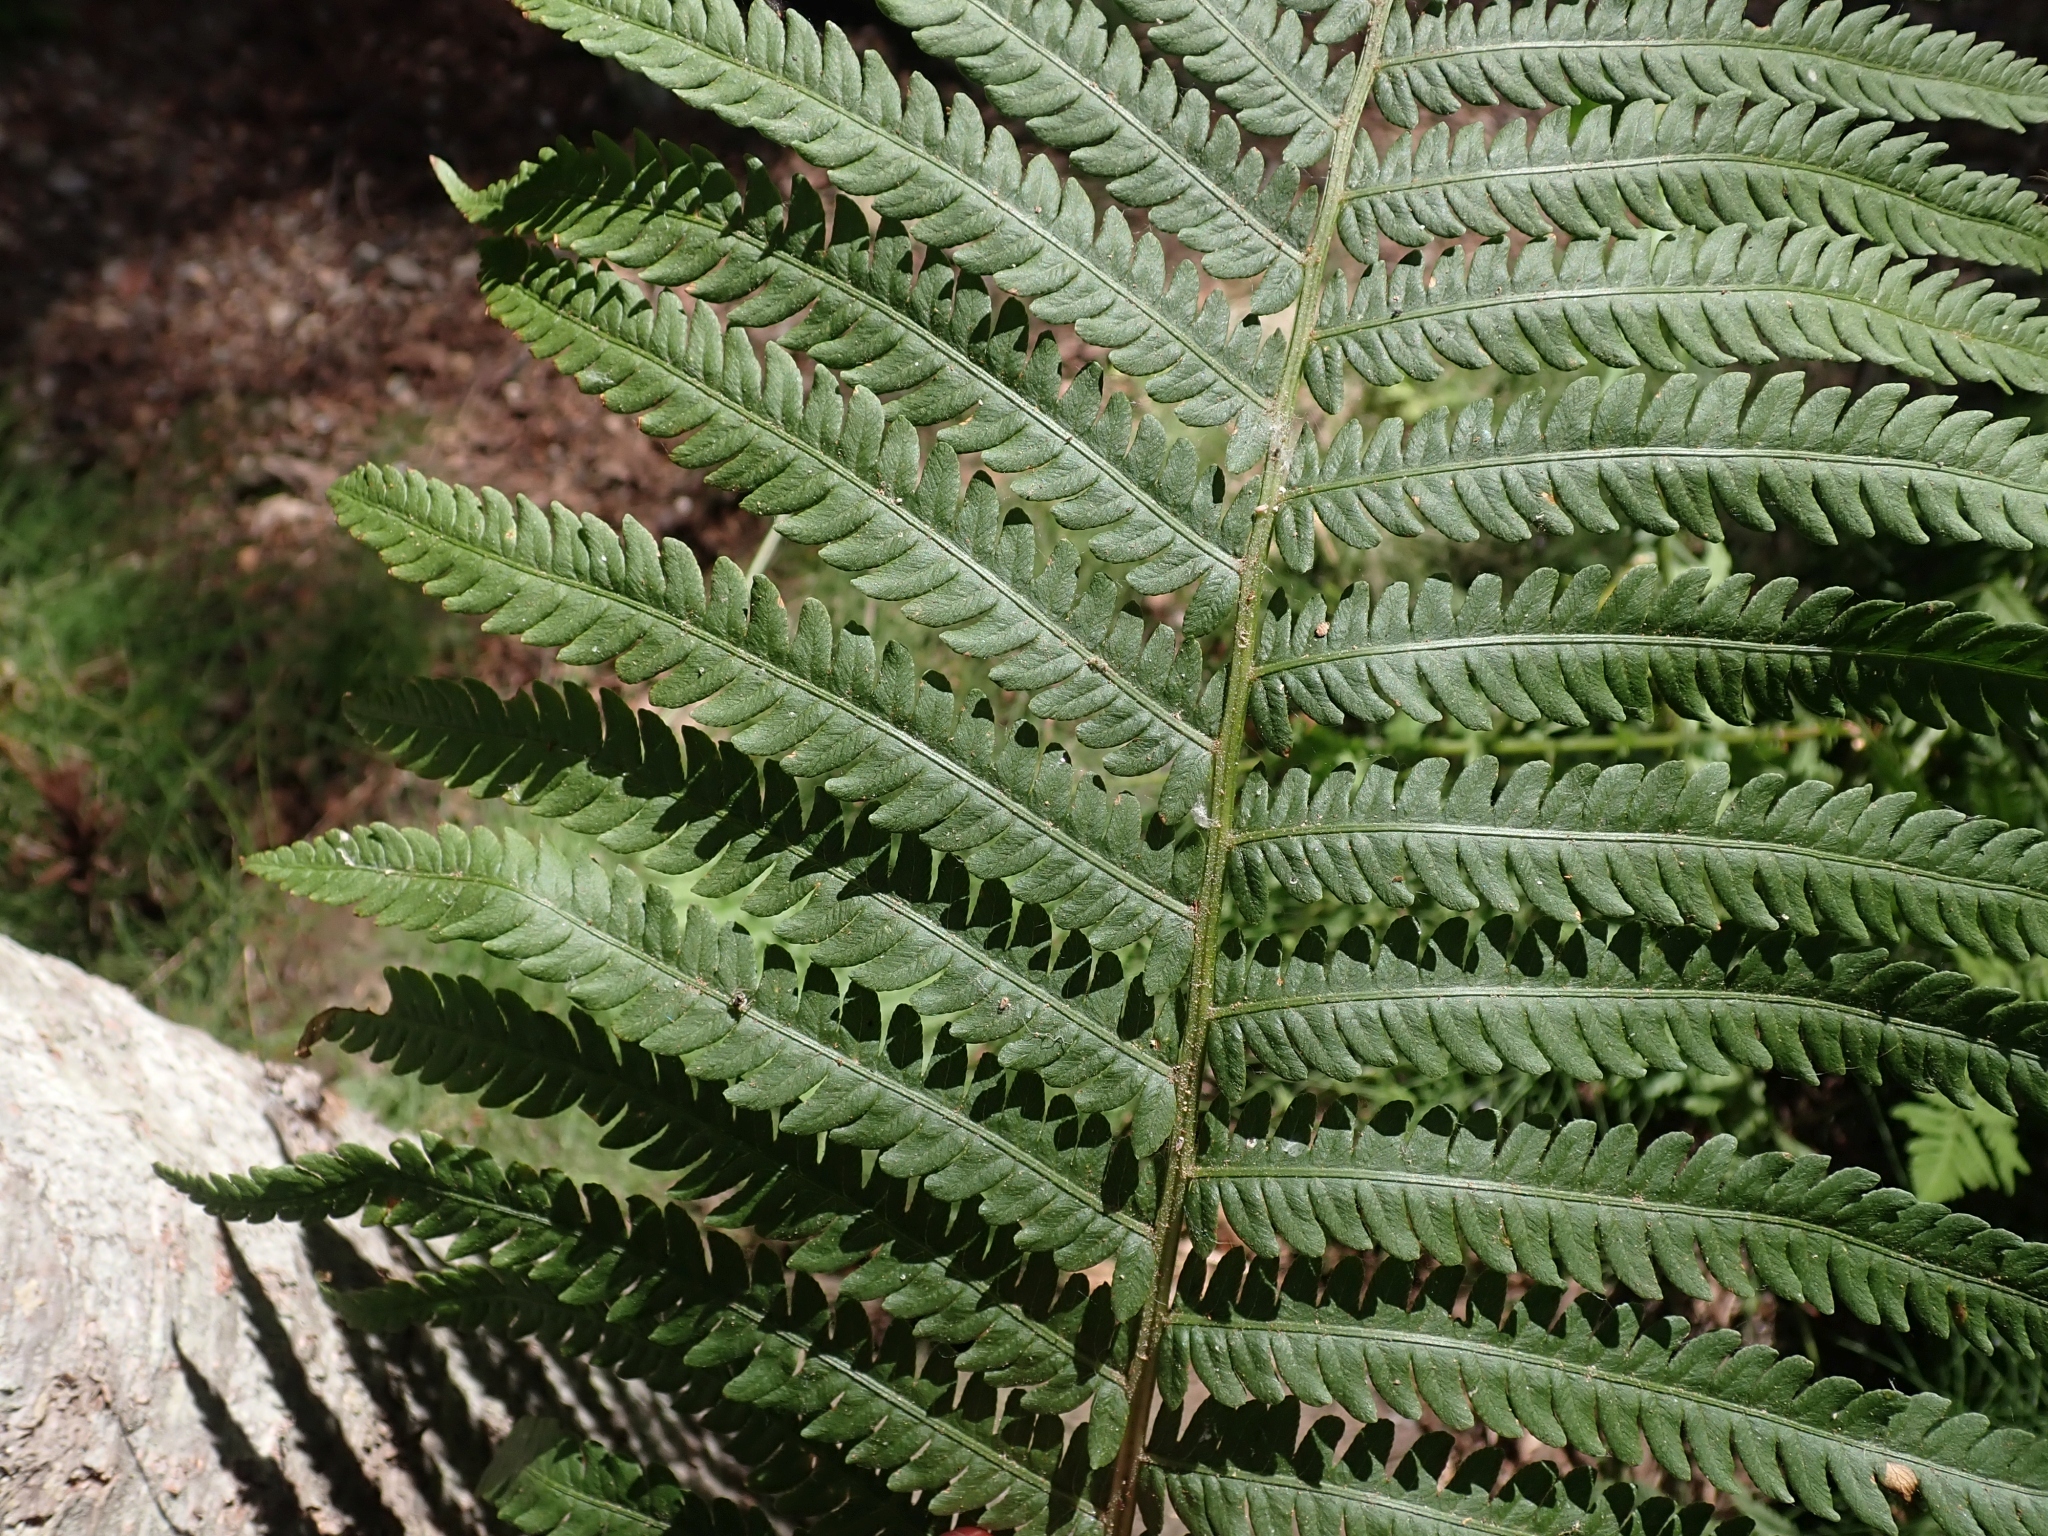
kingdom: Plantae
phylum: Tracheophyta
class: Polypodiopsida
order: Polypodiales
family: Onocleaceae
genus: Matteuccia
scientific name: Matteuccia struthiopteris
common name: Ostrich fern
